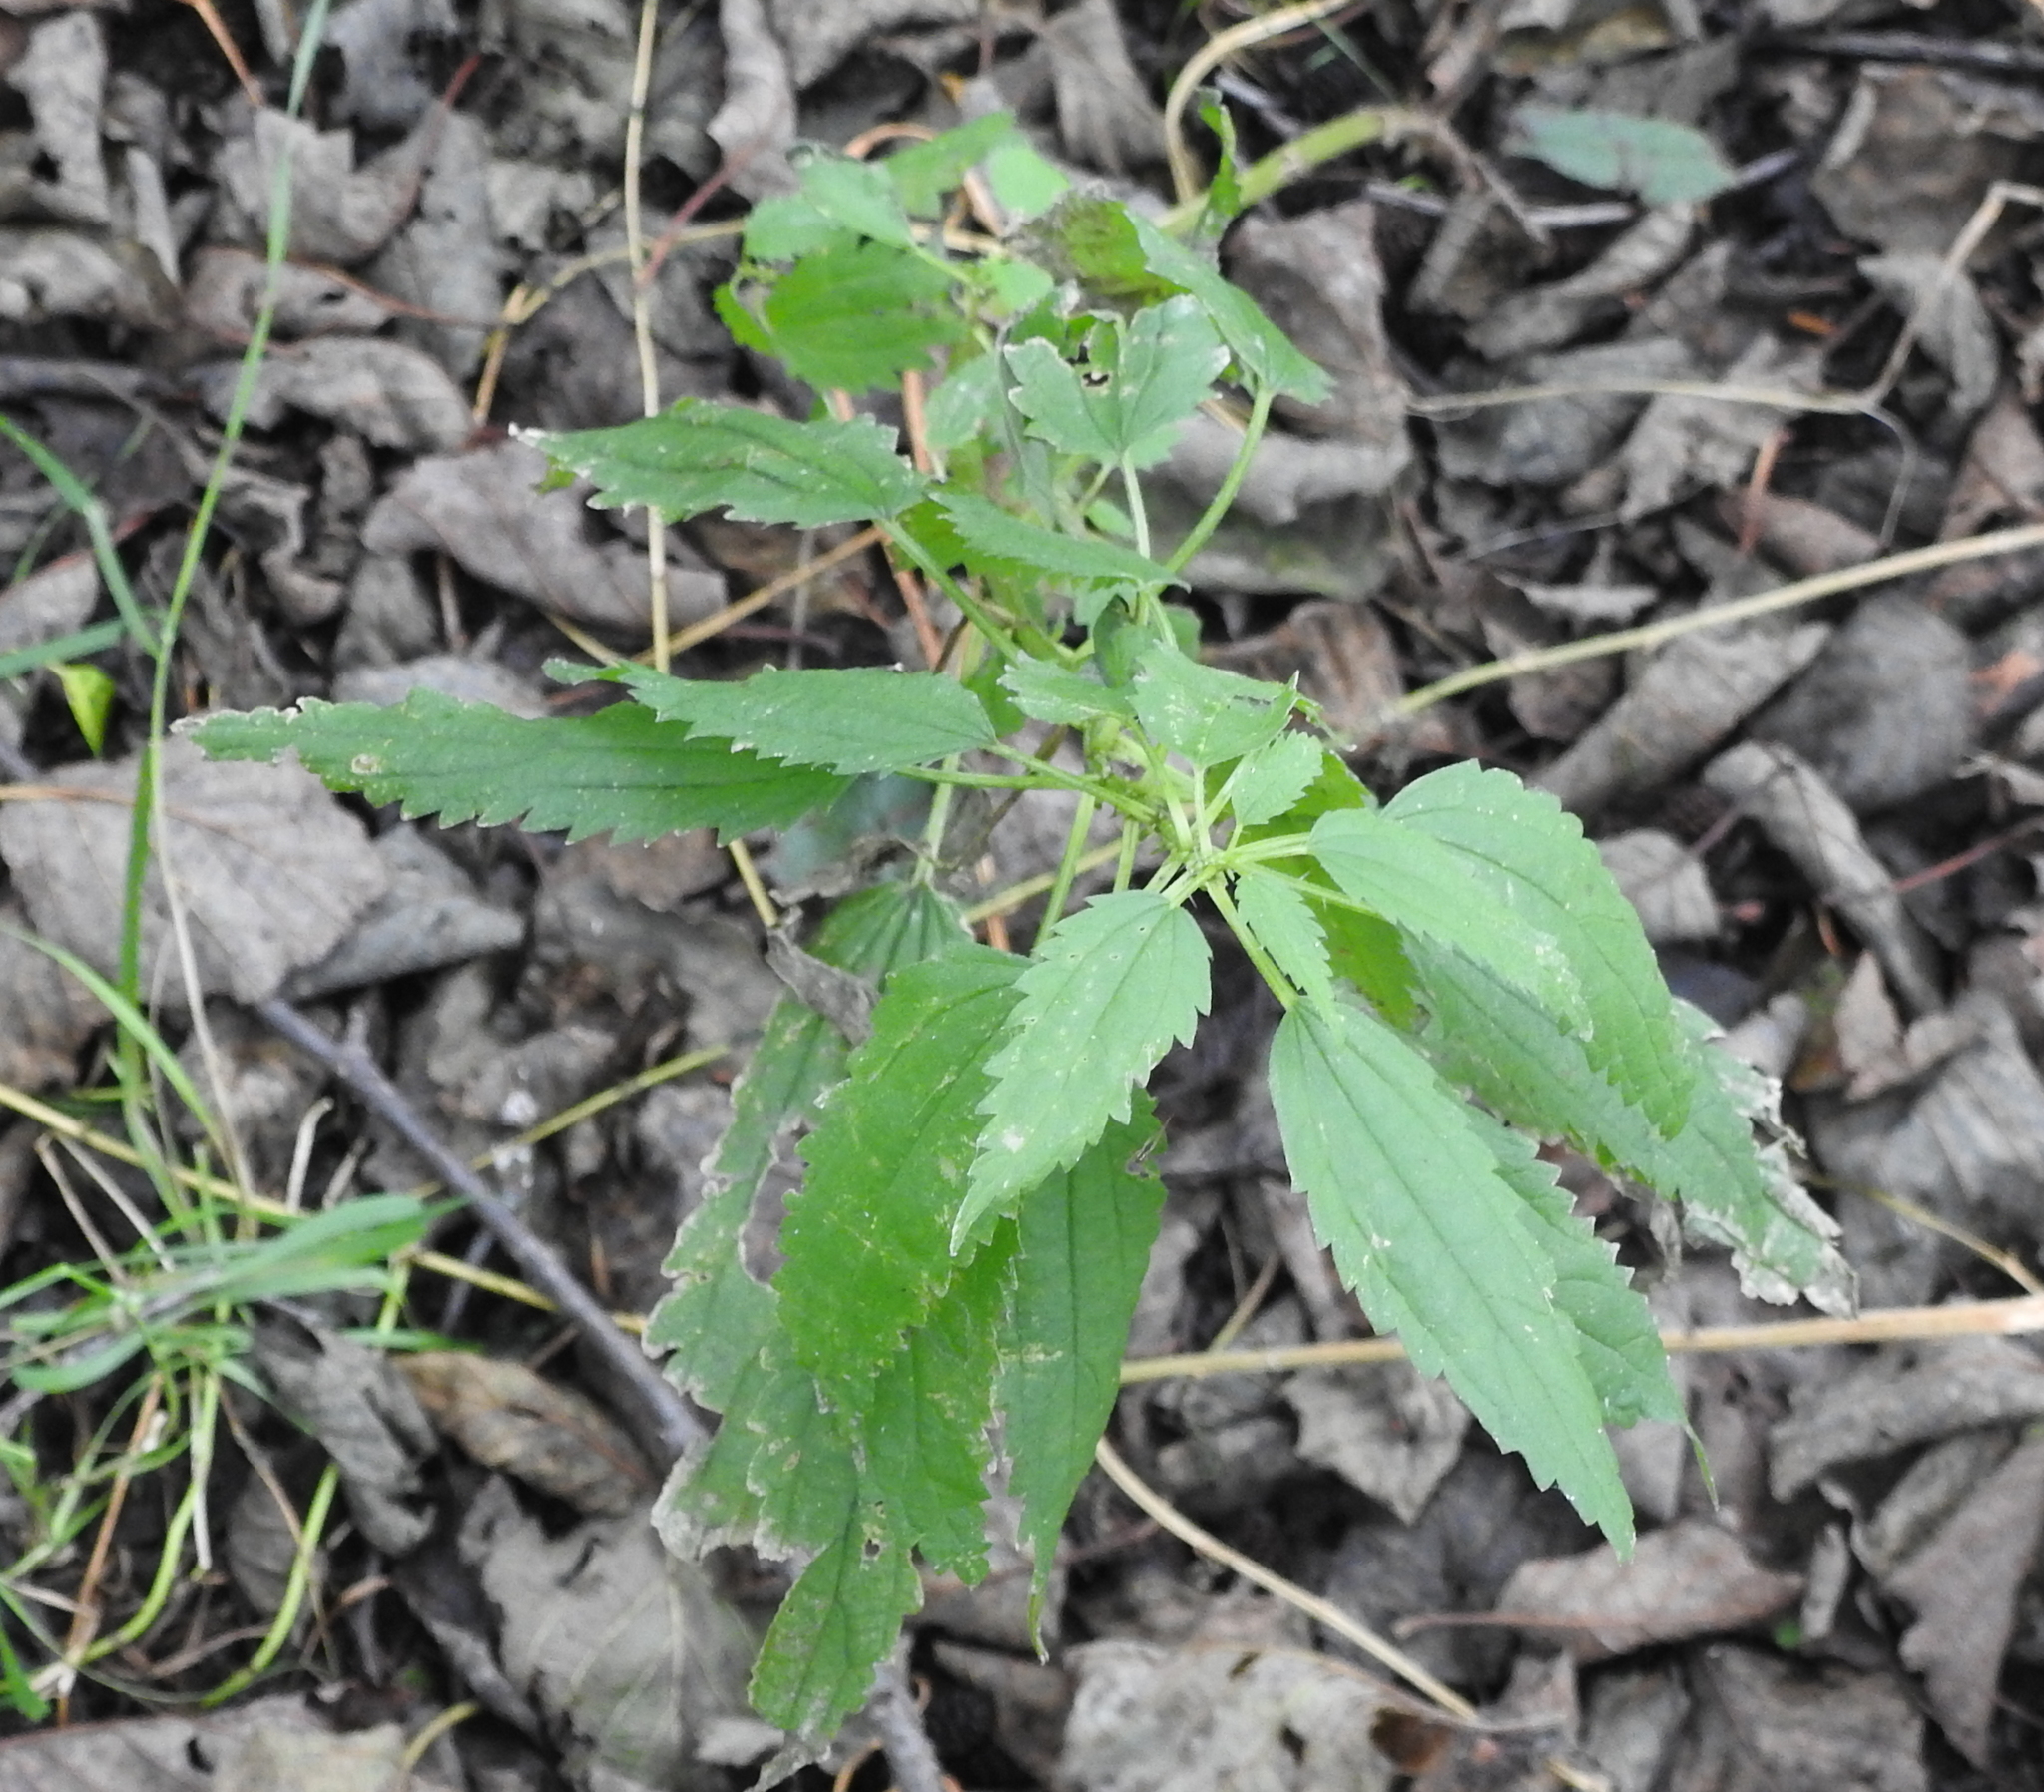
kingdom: Plantae
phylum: Tracheophyta
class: Magnoliopsida
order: Rosales
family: Urticaceae
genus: Urtica
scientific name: Urtica dioica
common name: Common nettle
